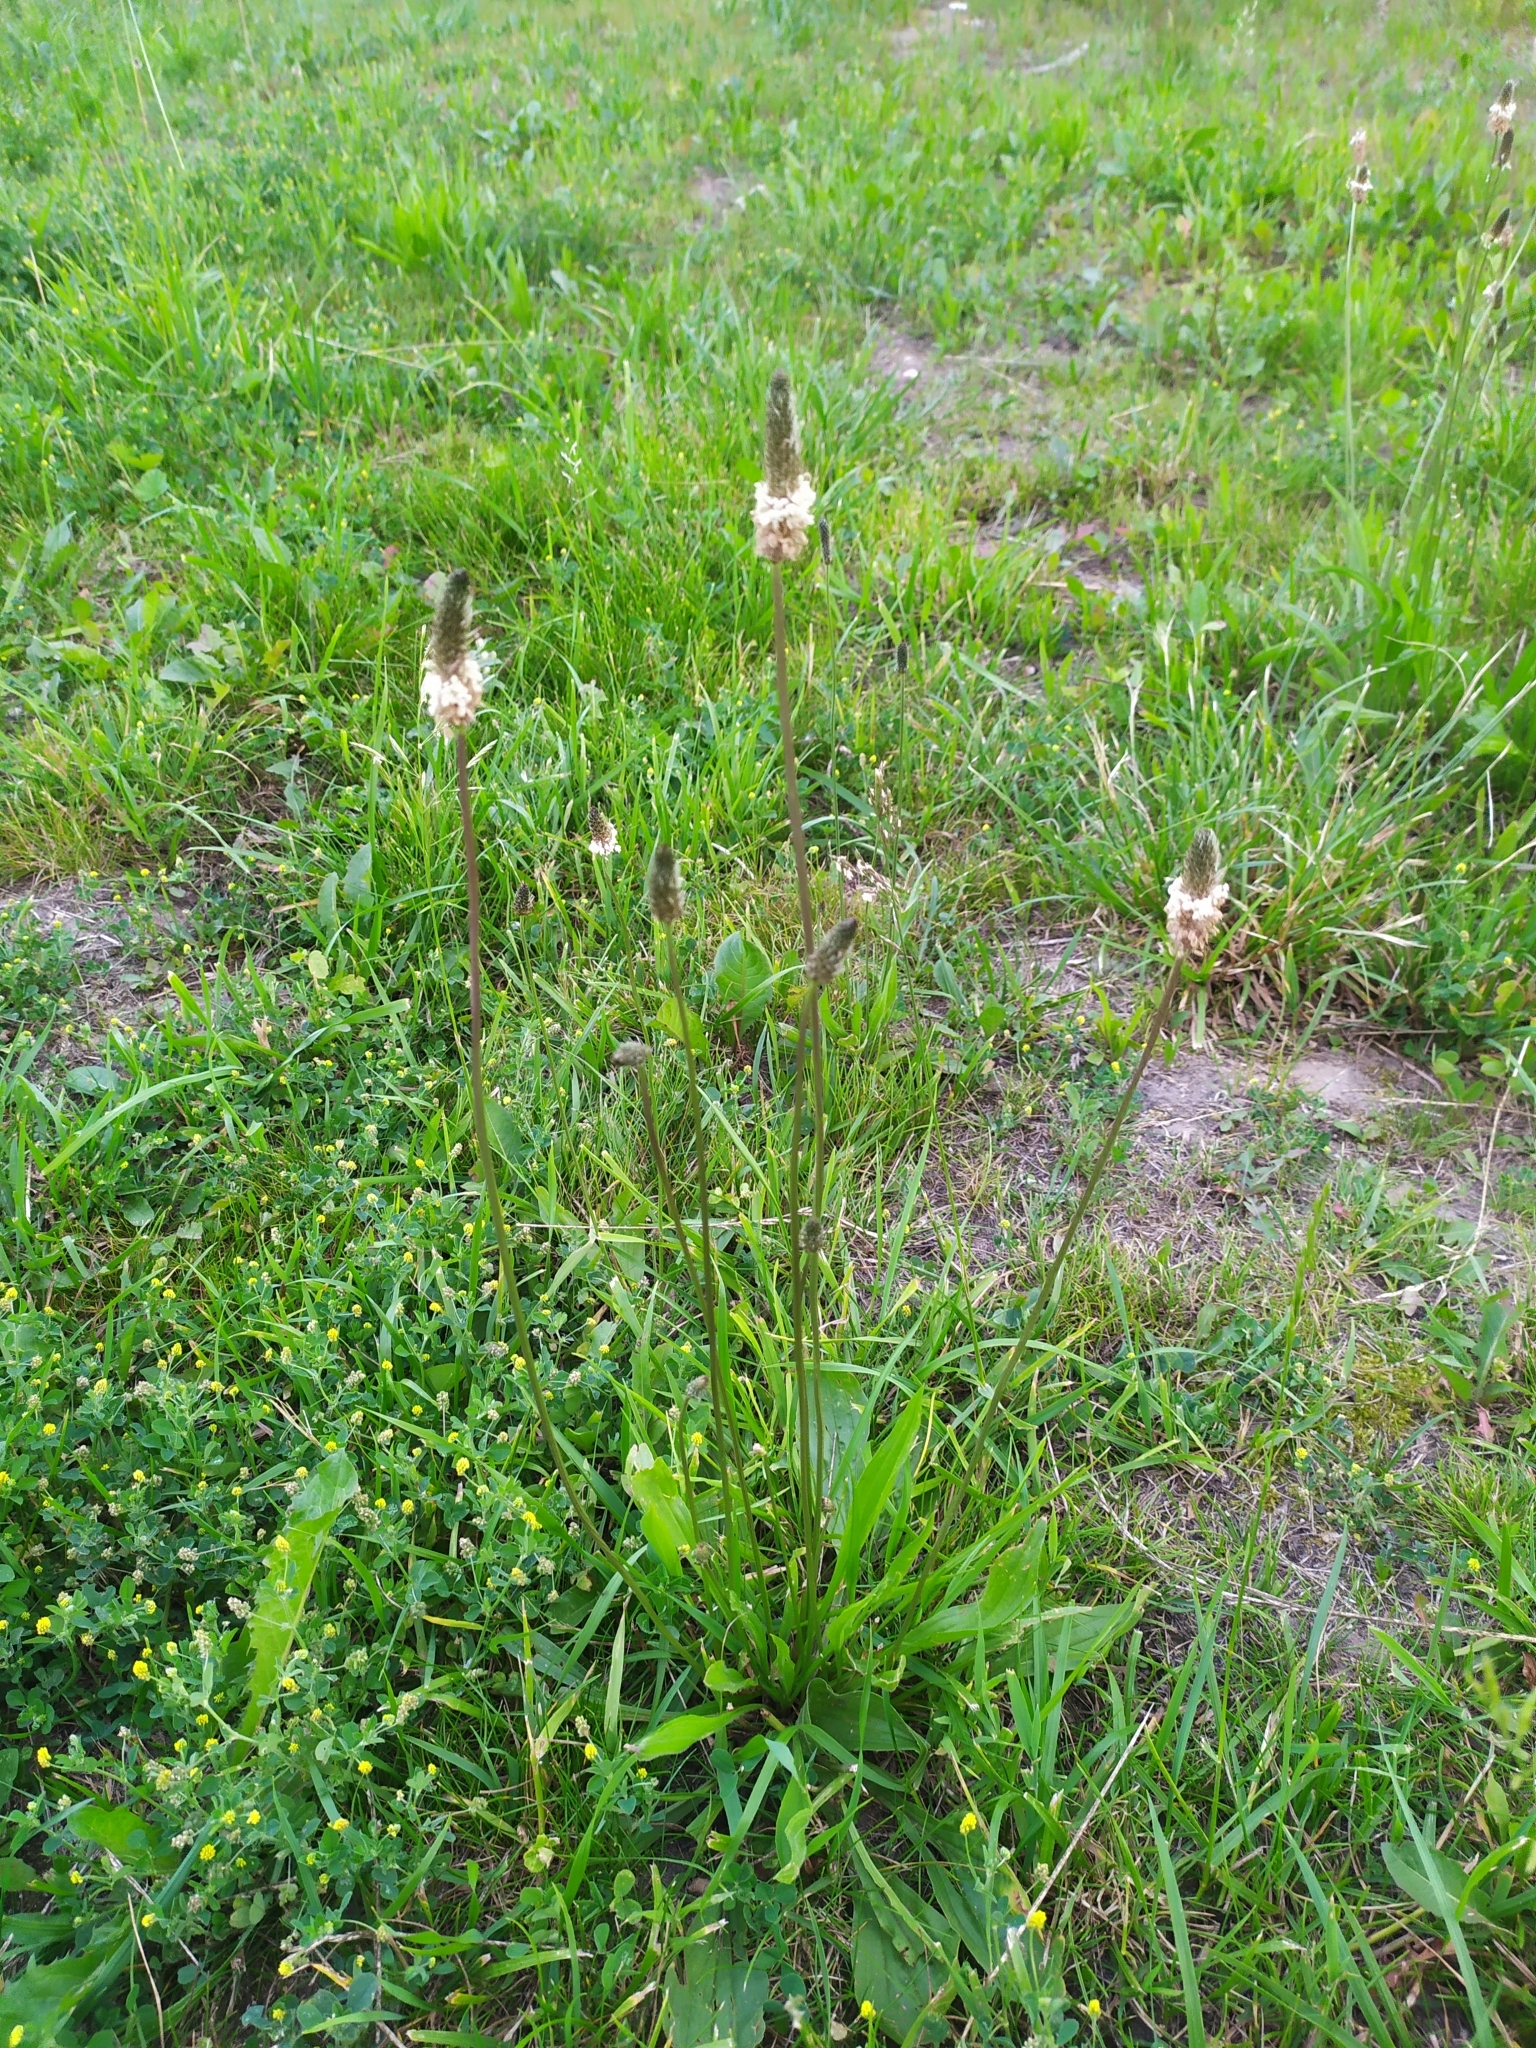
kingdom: Plantae
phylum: Tracheophyta
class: Magnoliopsida
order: Lamiales
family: Plantaginaceae
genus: Plantago
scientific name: Plantago lanceolata
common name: Ribwort plantain
